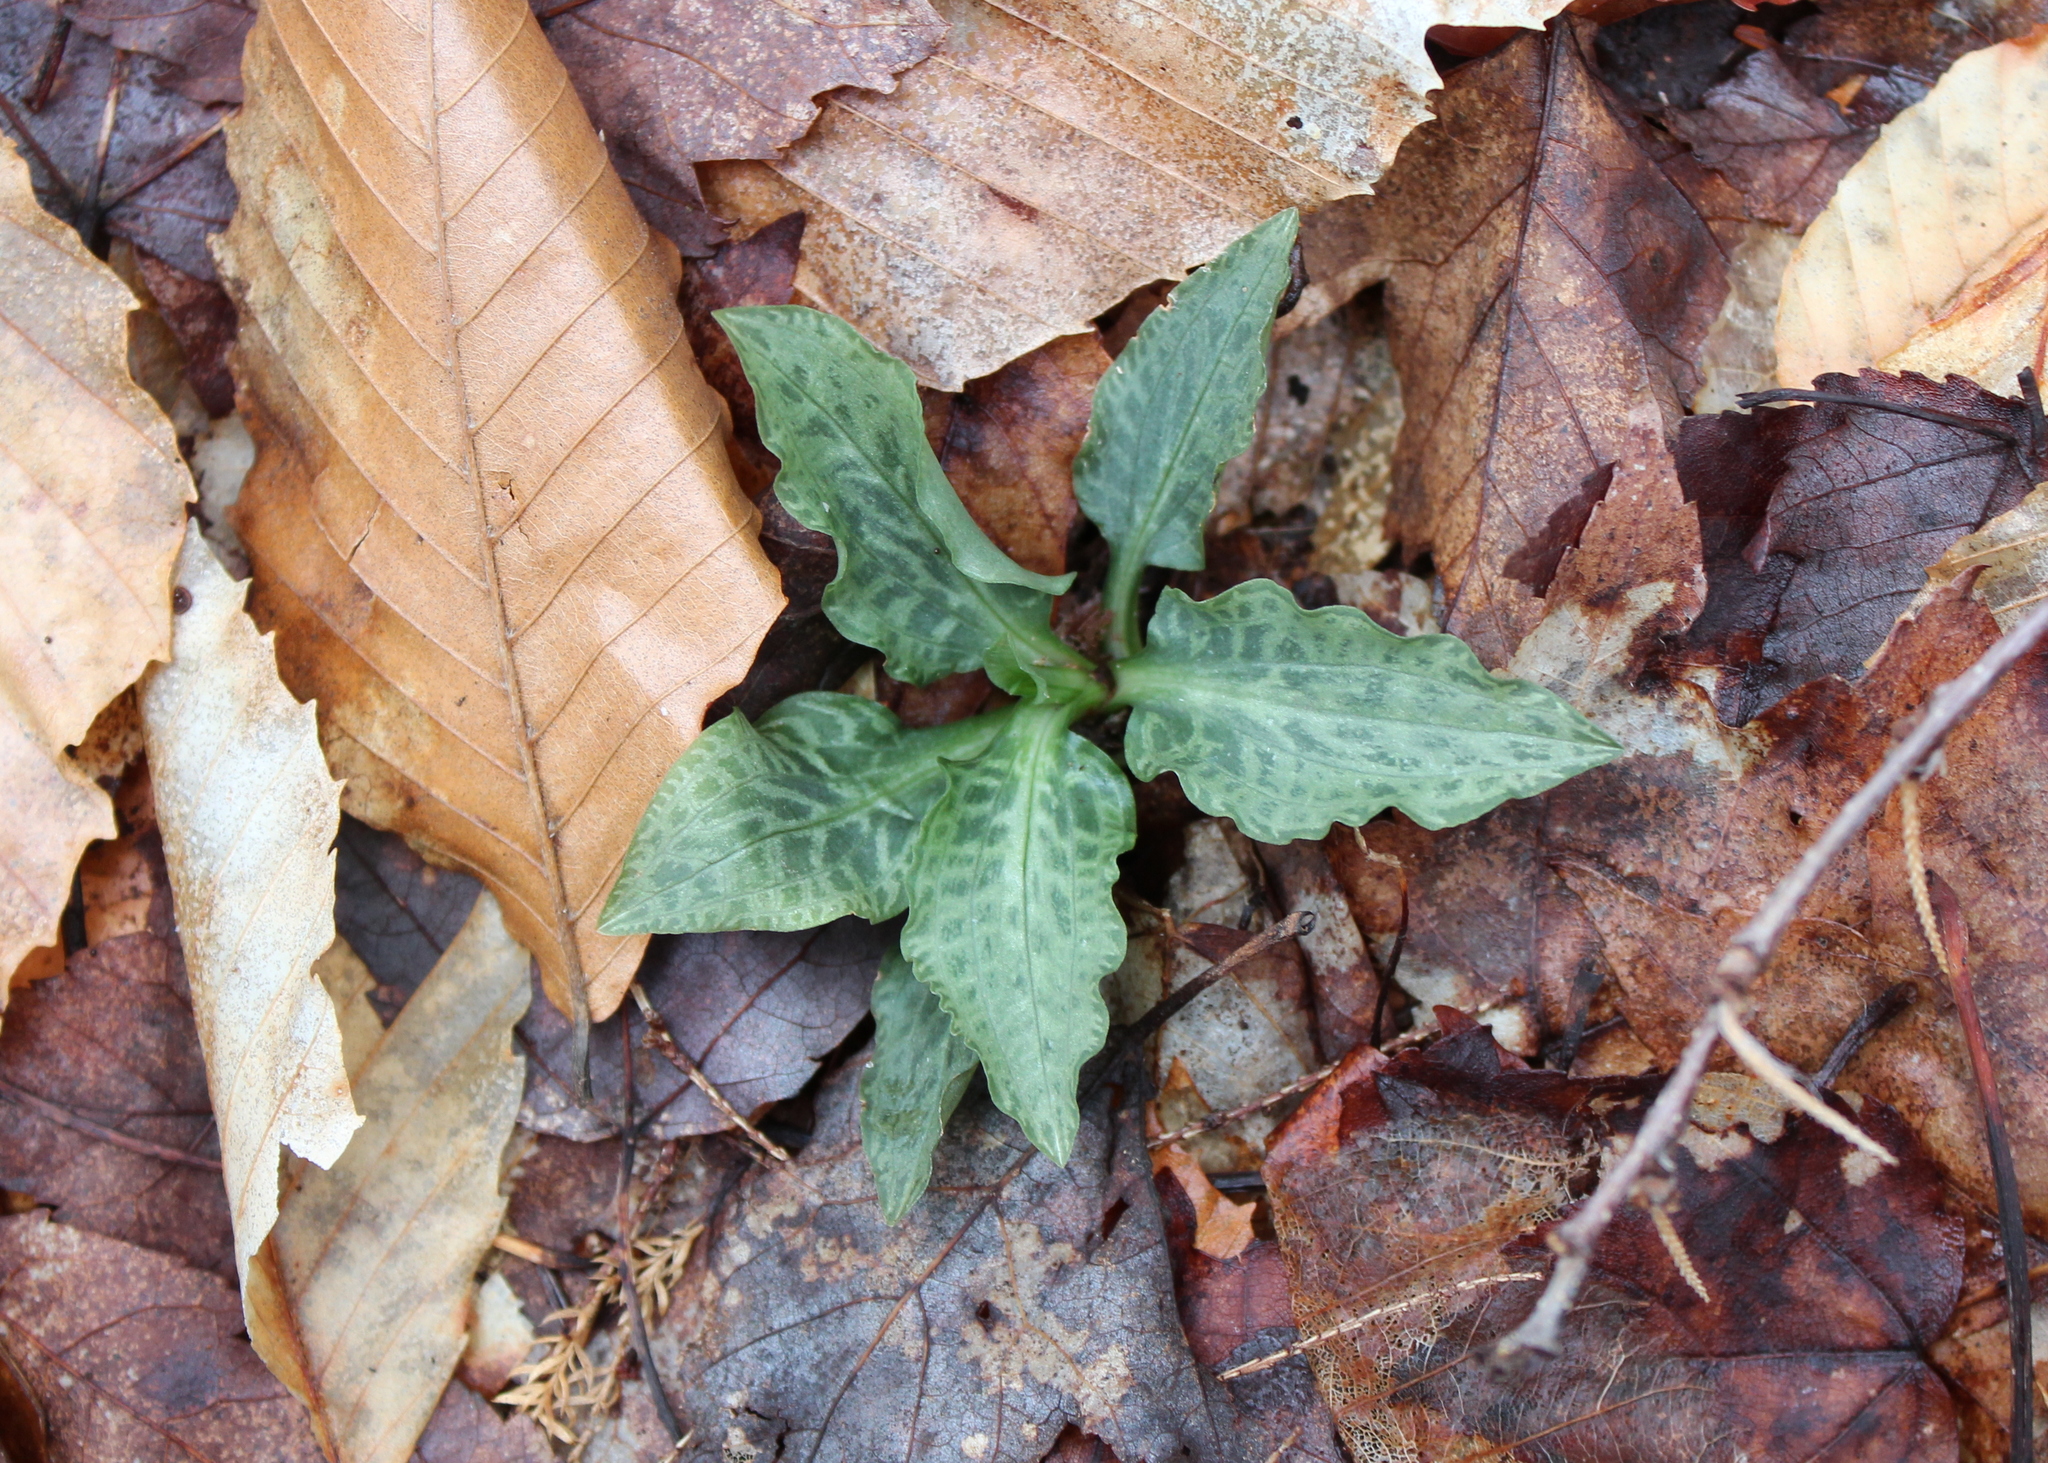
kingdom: Plantae
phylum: Tracheophyta
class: Liliopsida
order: Asparagales
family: Orchidaceae
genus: Goodyera
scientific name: Goodyera tesselata
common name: Checkered rattlesnake-plantain
